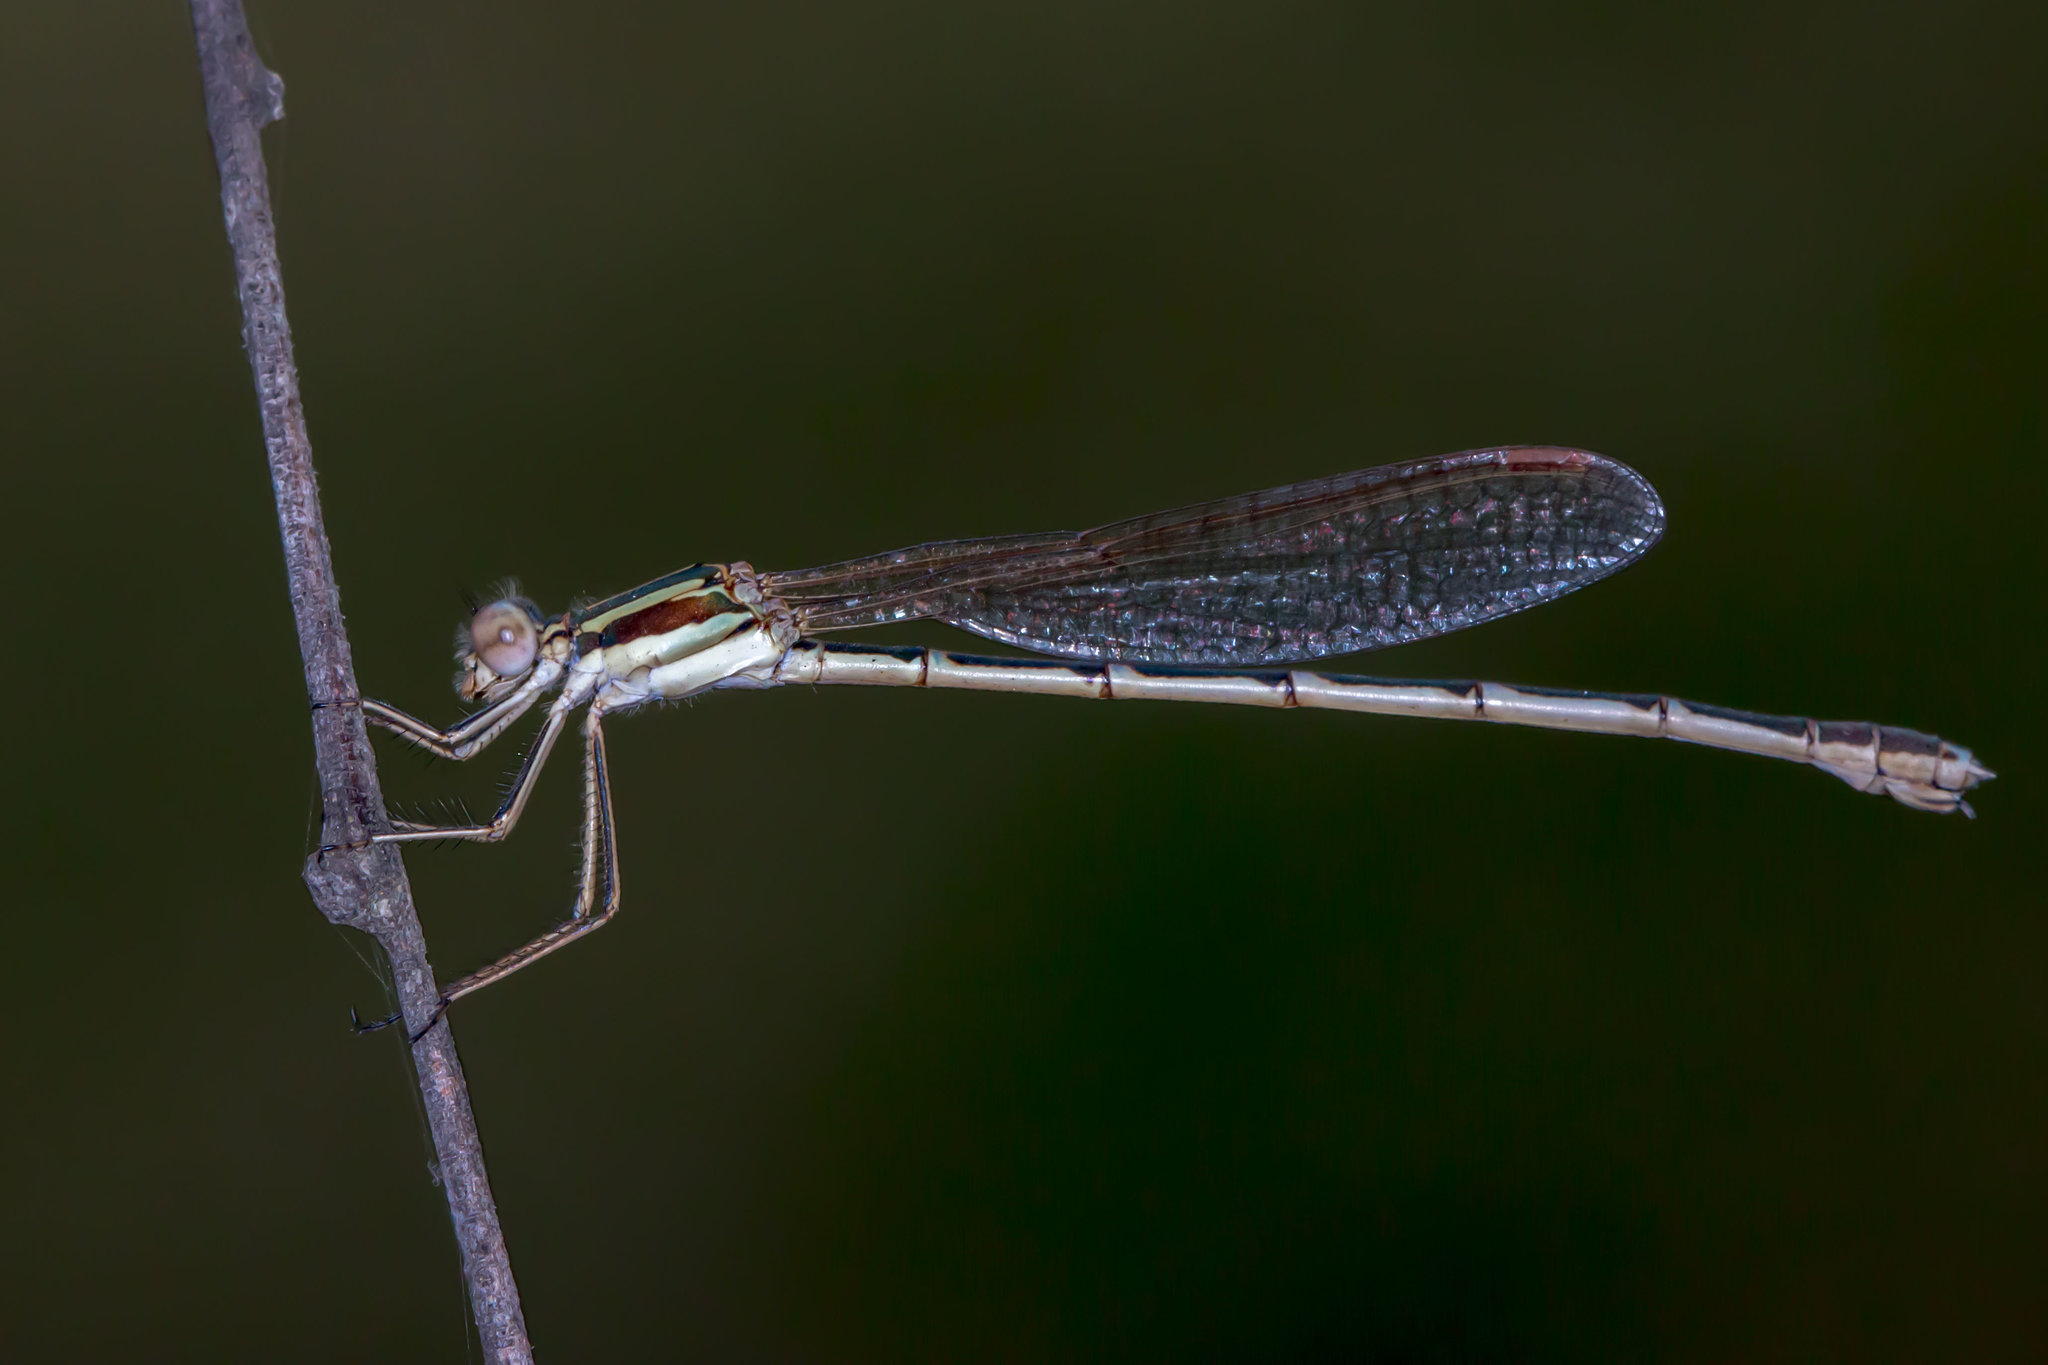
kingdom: Animalia
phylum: Arthropoda
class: Insecta
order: Odonata
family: Lestidae
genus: Austrolestes
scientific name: Austrolestes analis
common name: Slender ringtail
